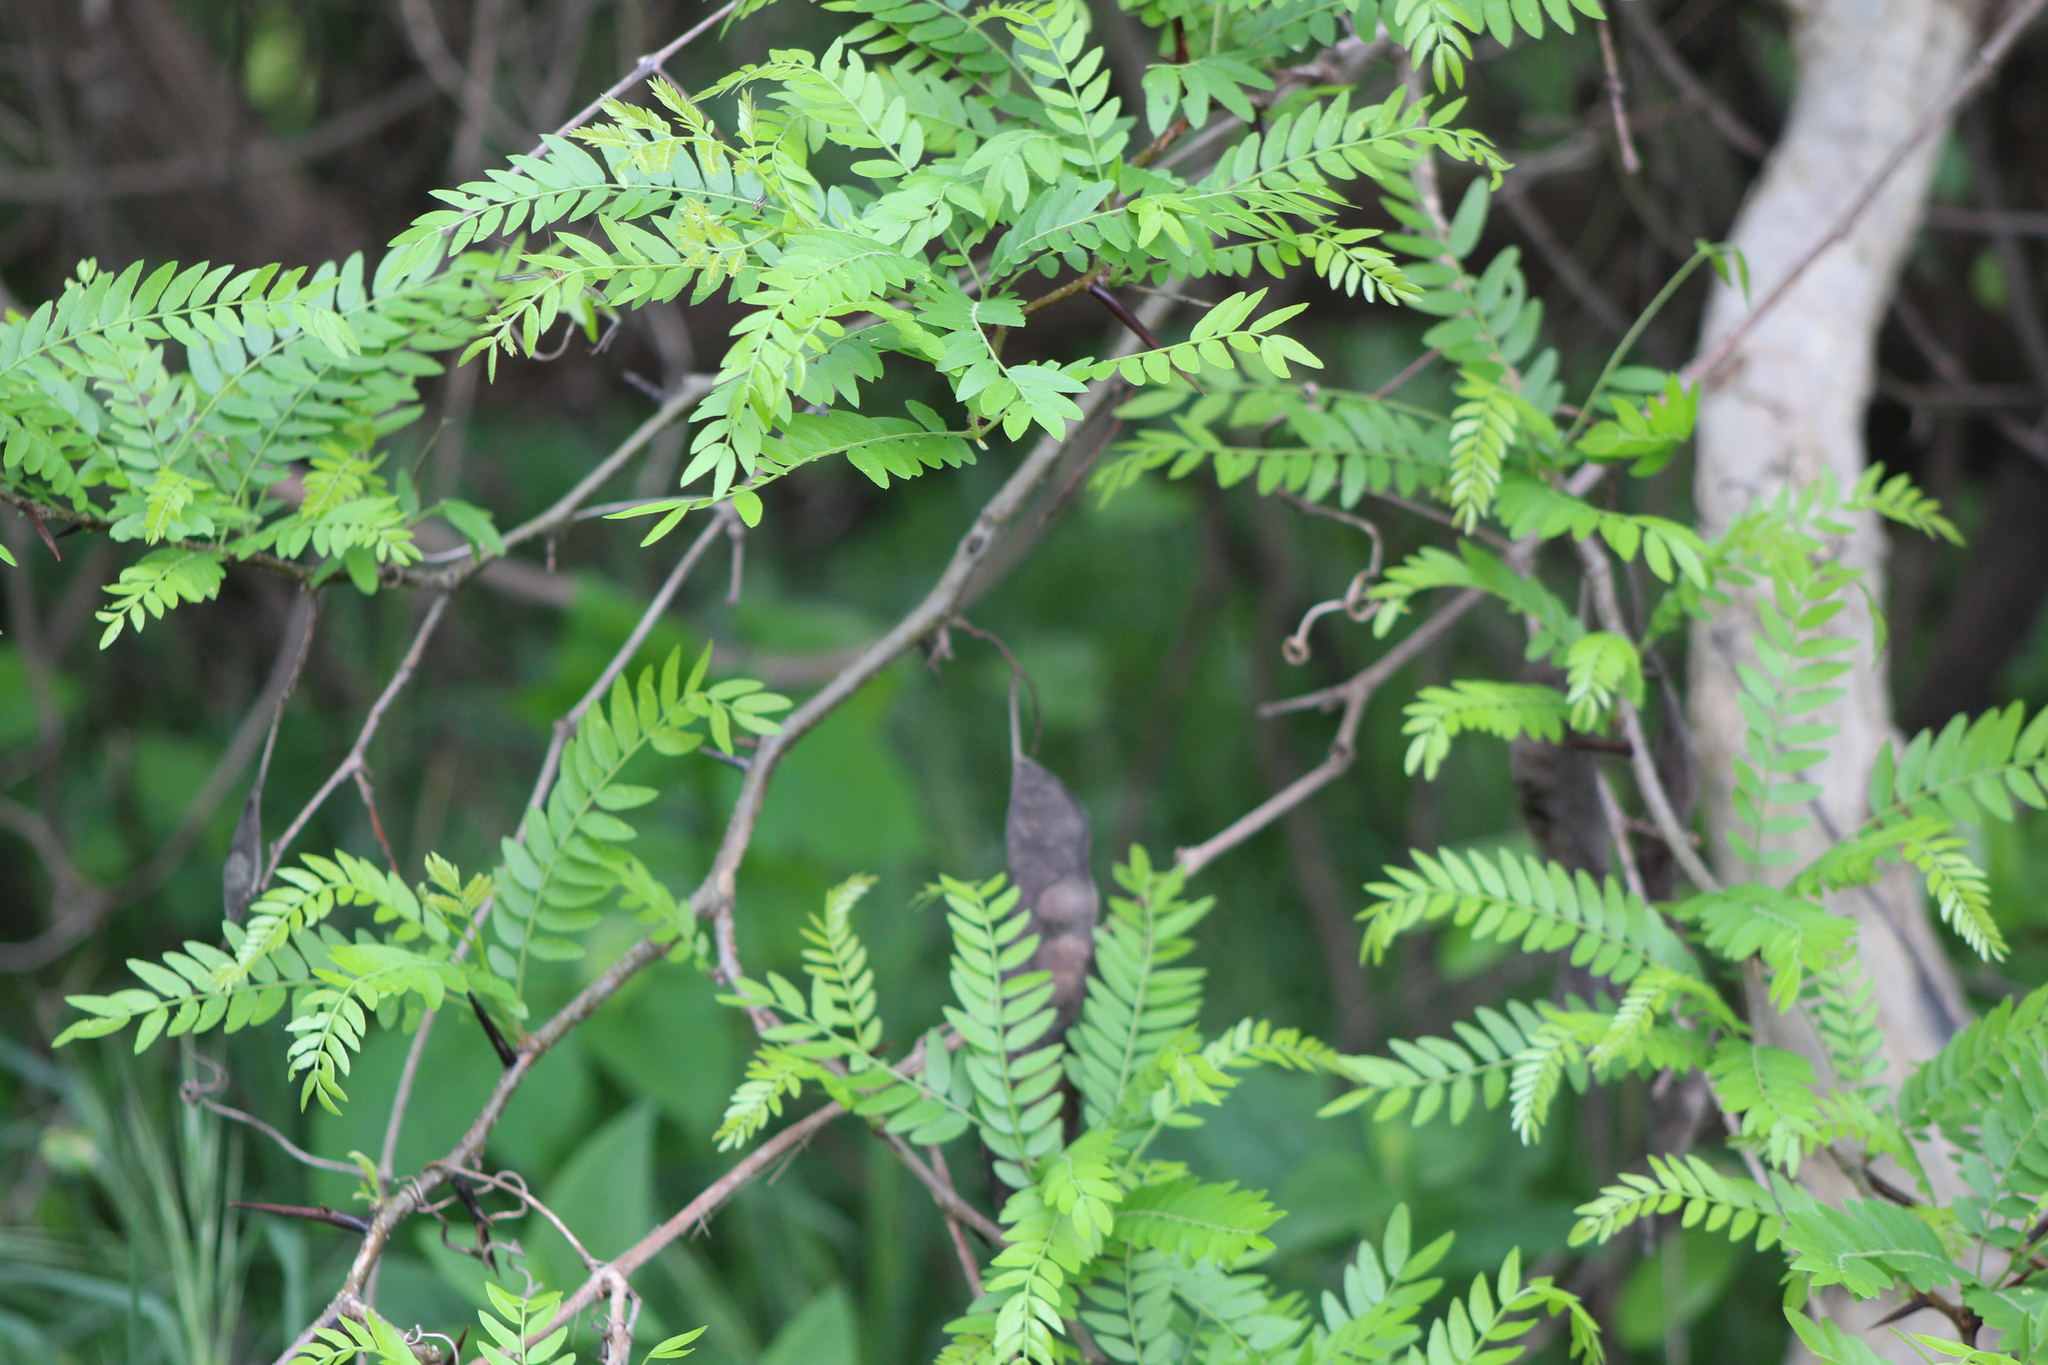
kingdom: Plantae
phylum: Tracheophyta
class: Magnoliopsida
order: Fabales
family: Fabaceae
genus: Gleditsia
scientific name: Gleditsia triacanthos
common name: Common honeylocust
